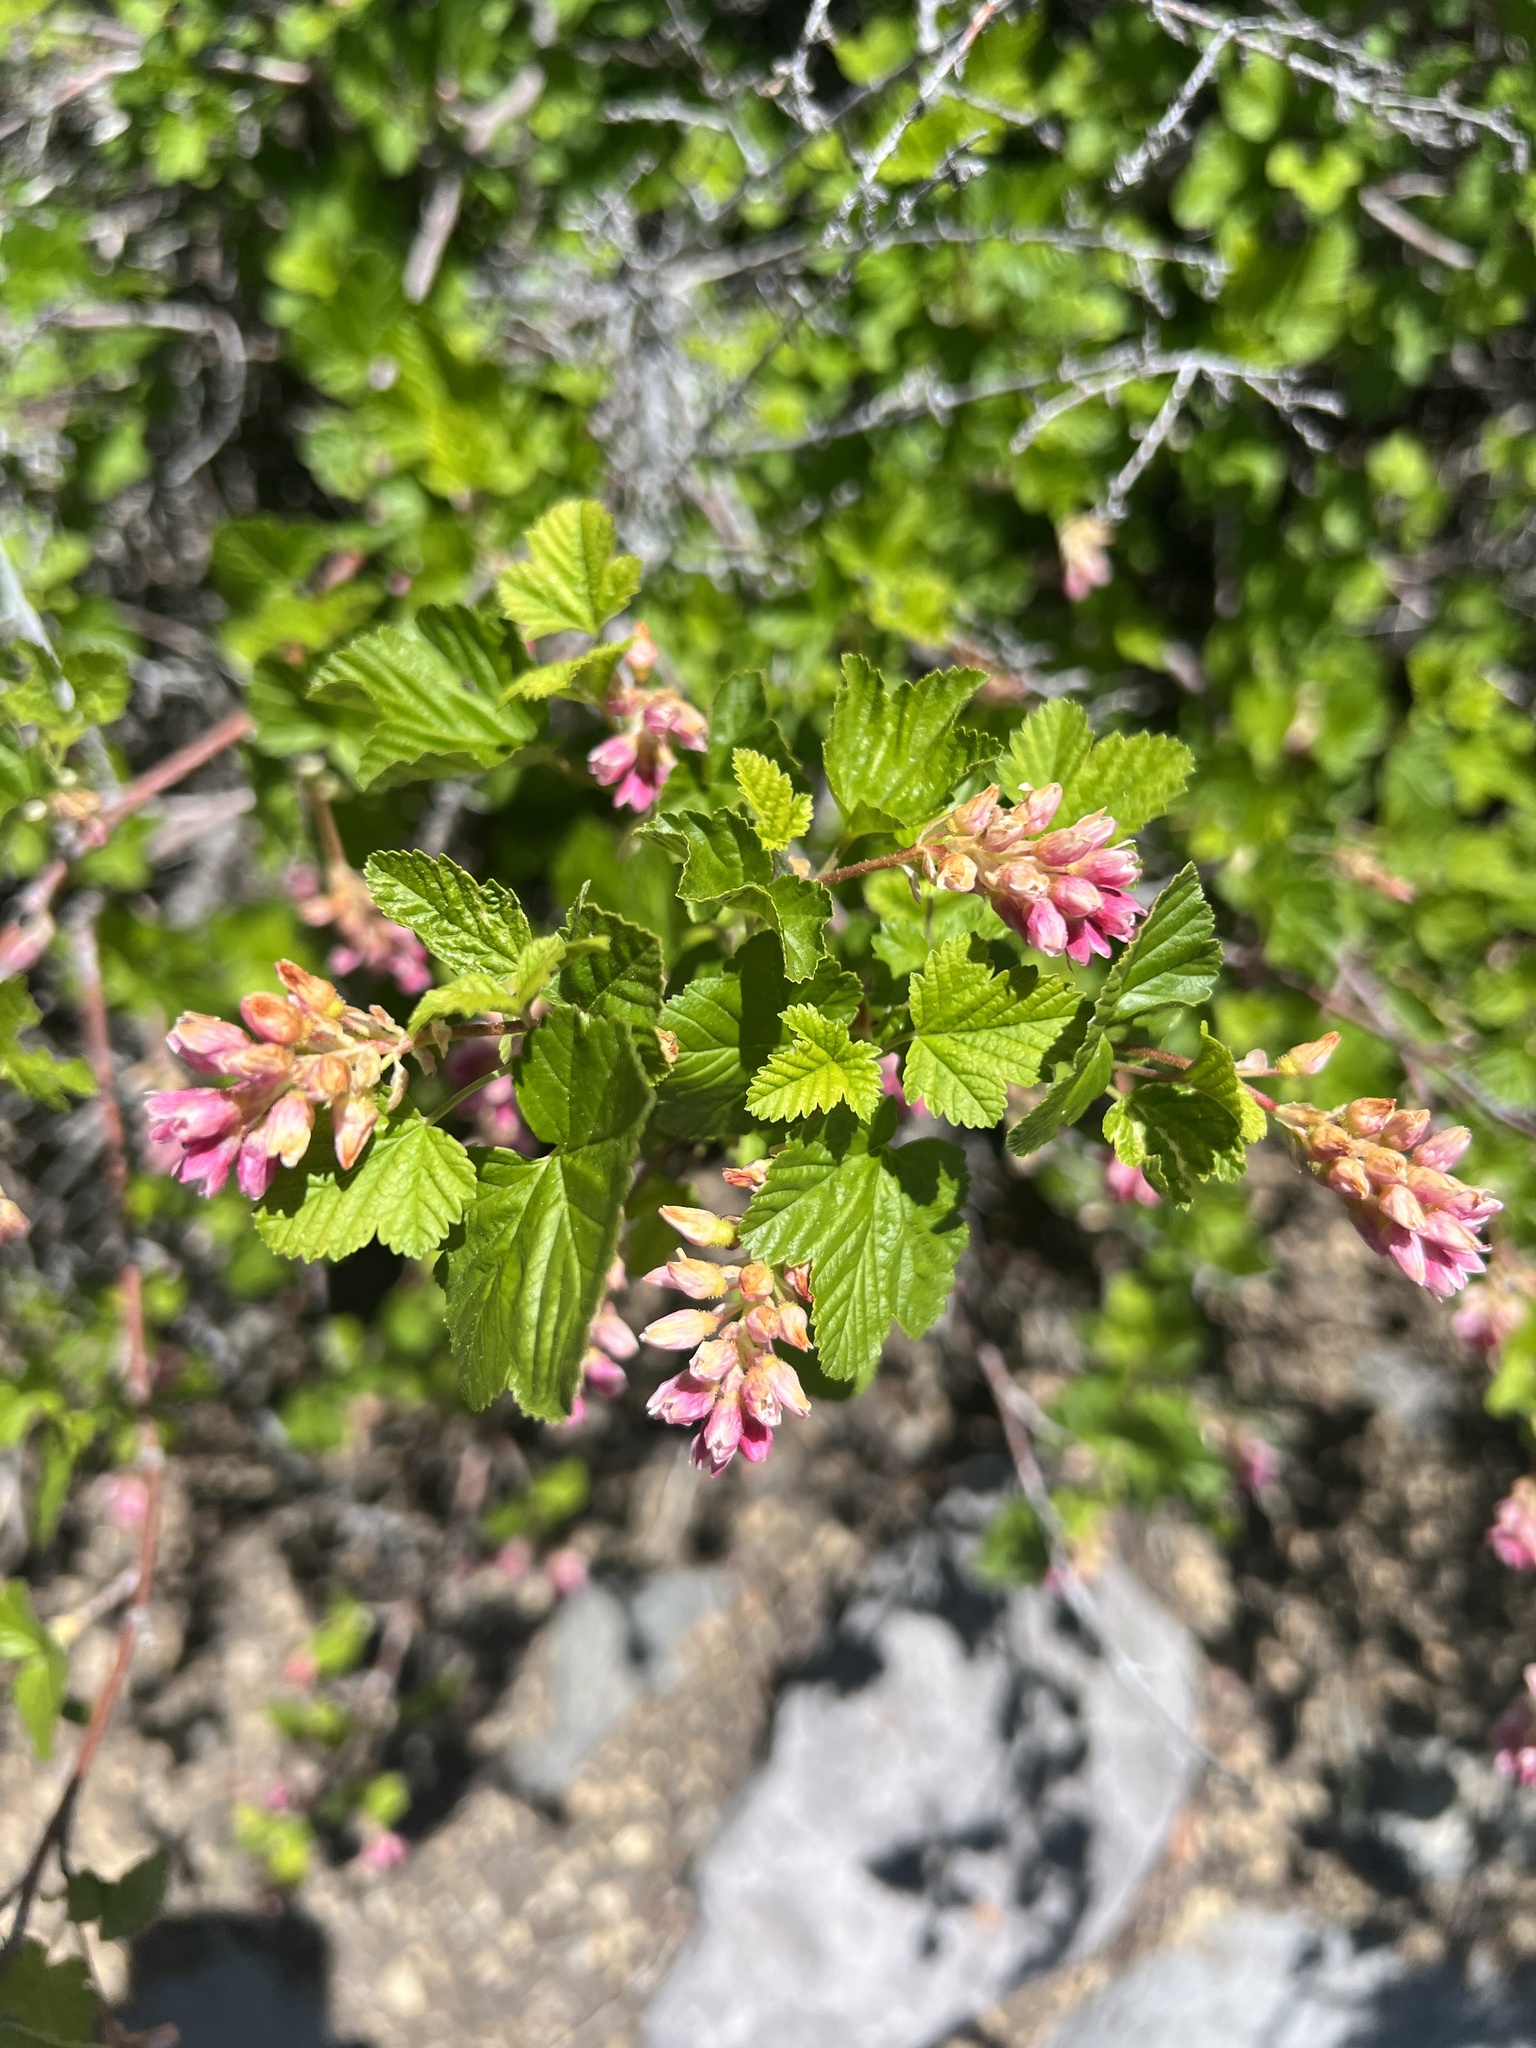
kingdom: Plantae
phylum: Tracheophyta
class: Magnoliopsida
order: Saxifragales
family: Grossulariaceae
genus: Ribes
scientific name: Ribes nevadense
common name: Mountain pink currant
